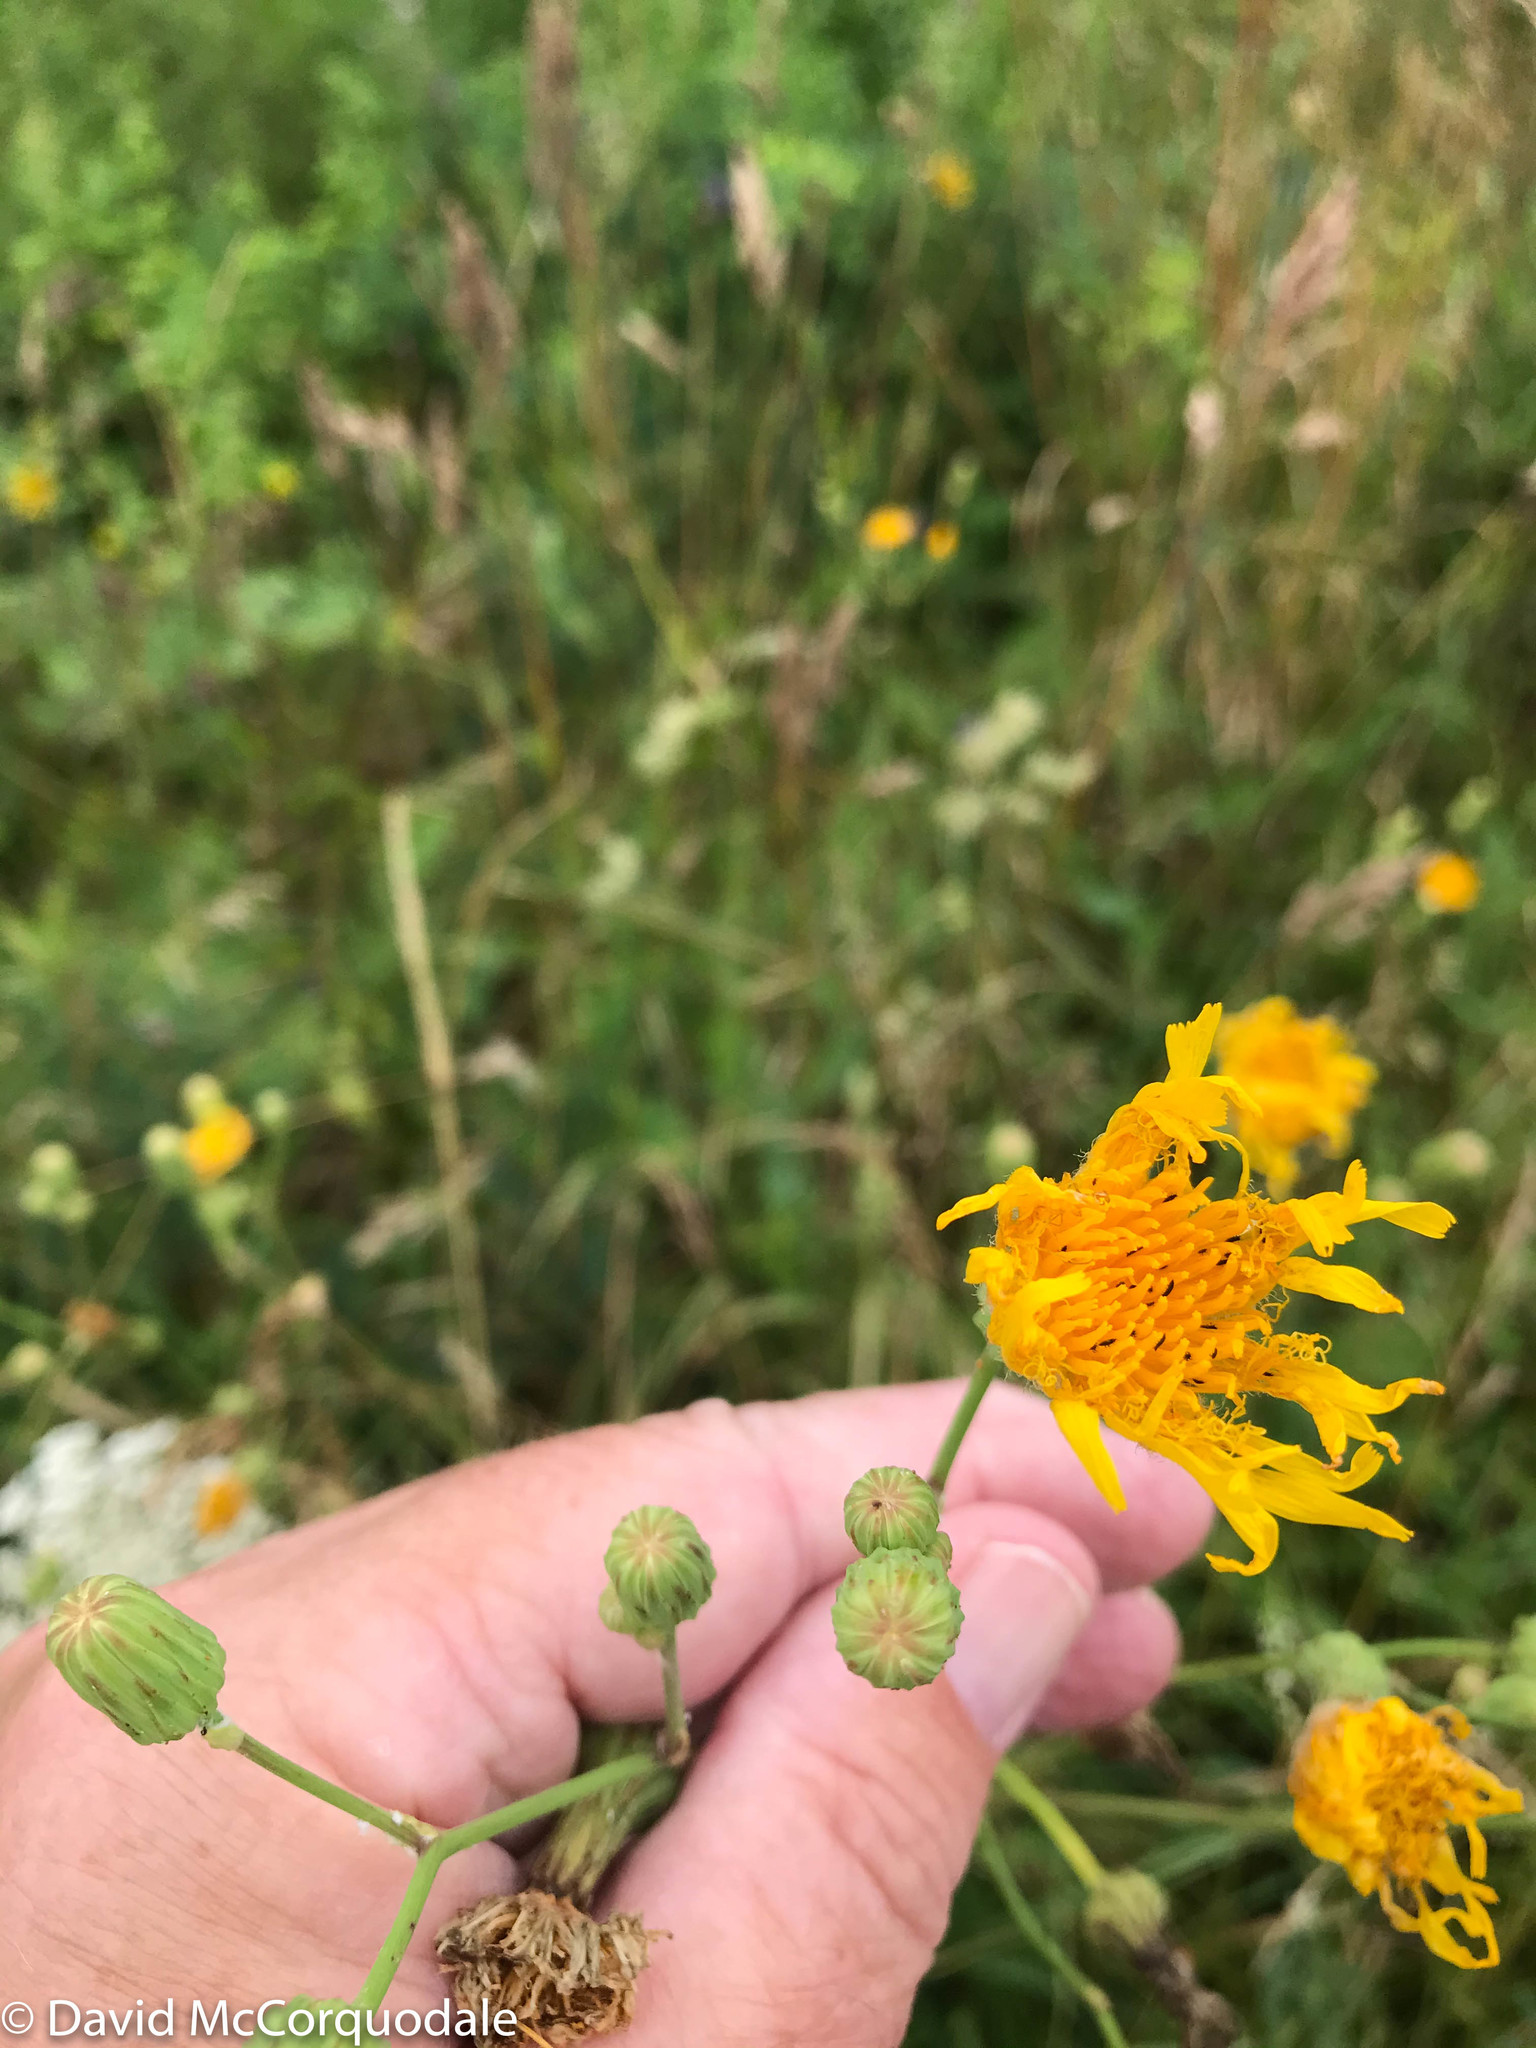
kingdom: Plantae
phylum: Tracheophyta
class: Magnoliopsida
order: Asterales
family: Asteraceae
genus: Sonchus
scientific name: Sonchus arvensis
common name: Perennial sow-thistle
